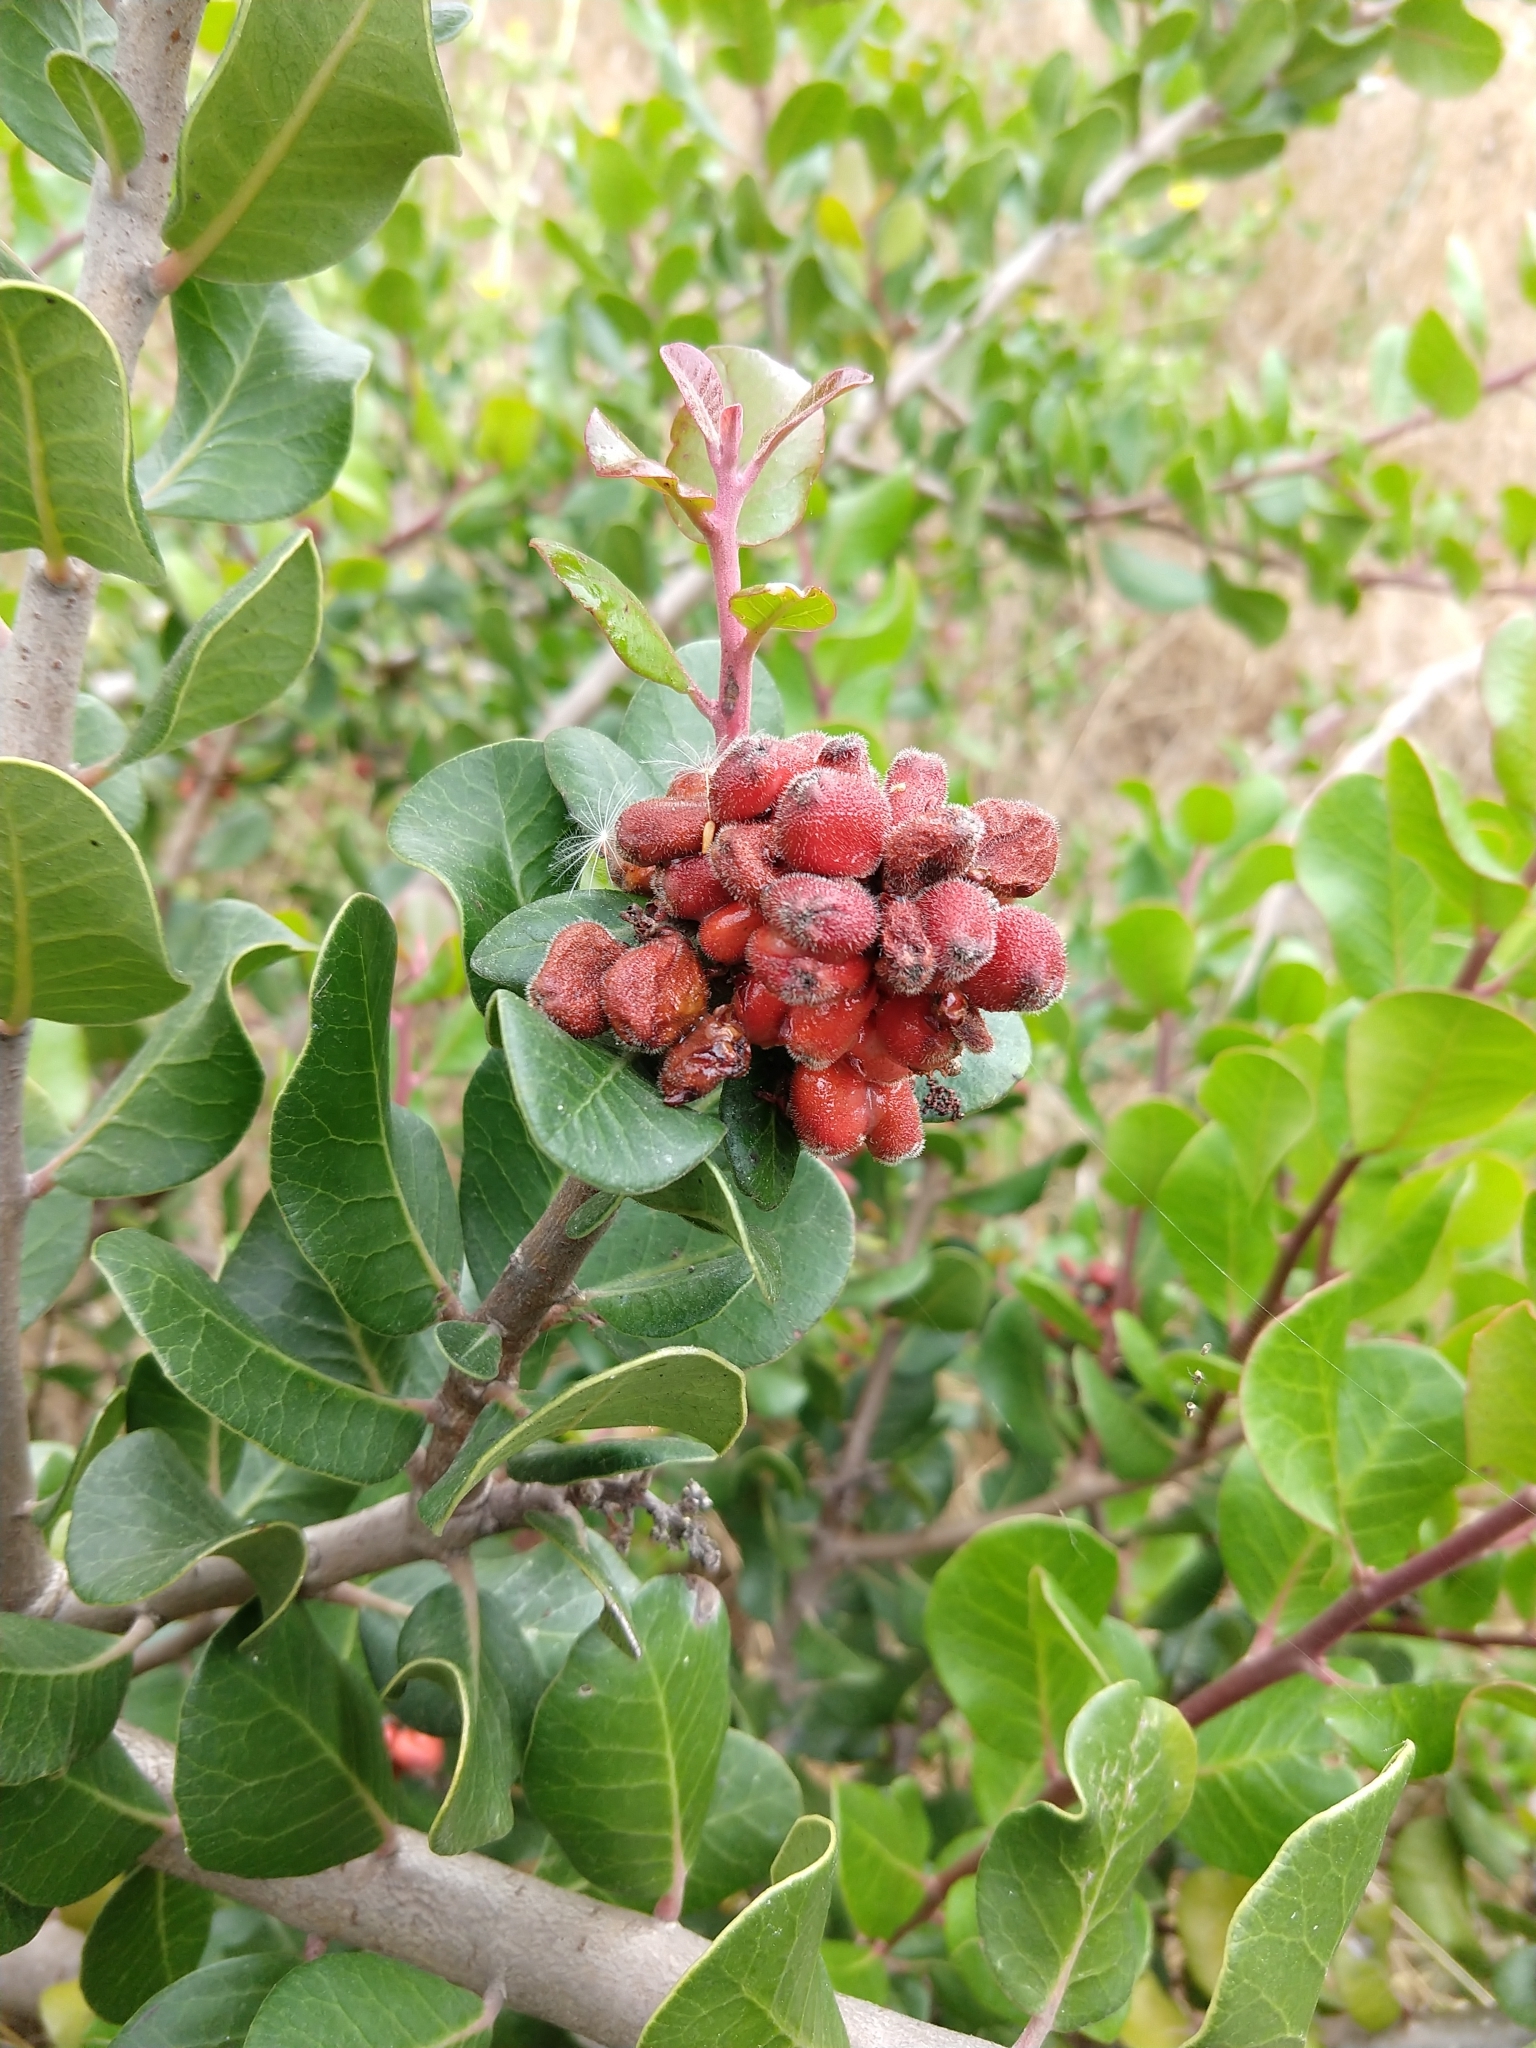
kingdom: Plantae
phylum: Tracheophyta
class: Magnoliopsida
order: Sapindales
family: Anacardiaceae
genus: Rhus
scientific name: Rhus integrifolia
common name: Lemonade sumac
